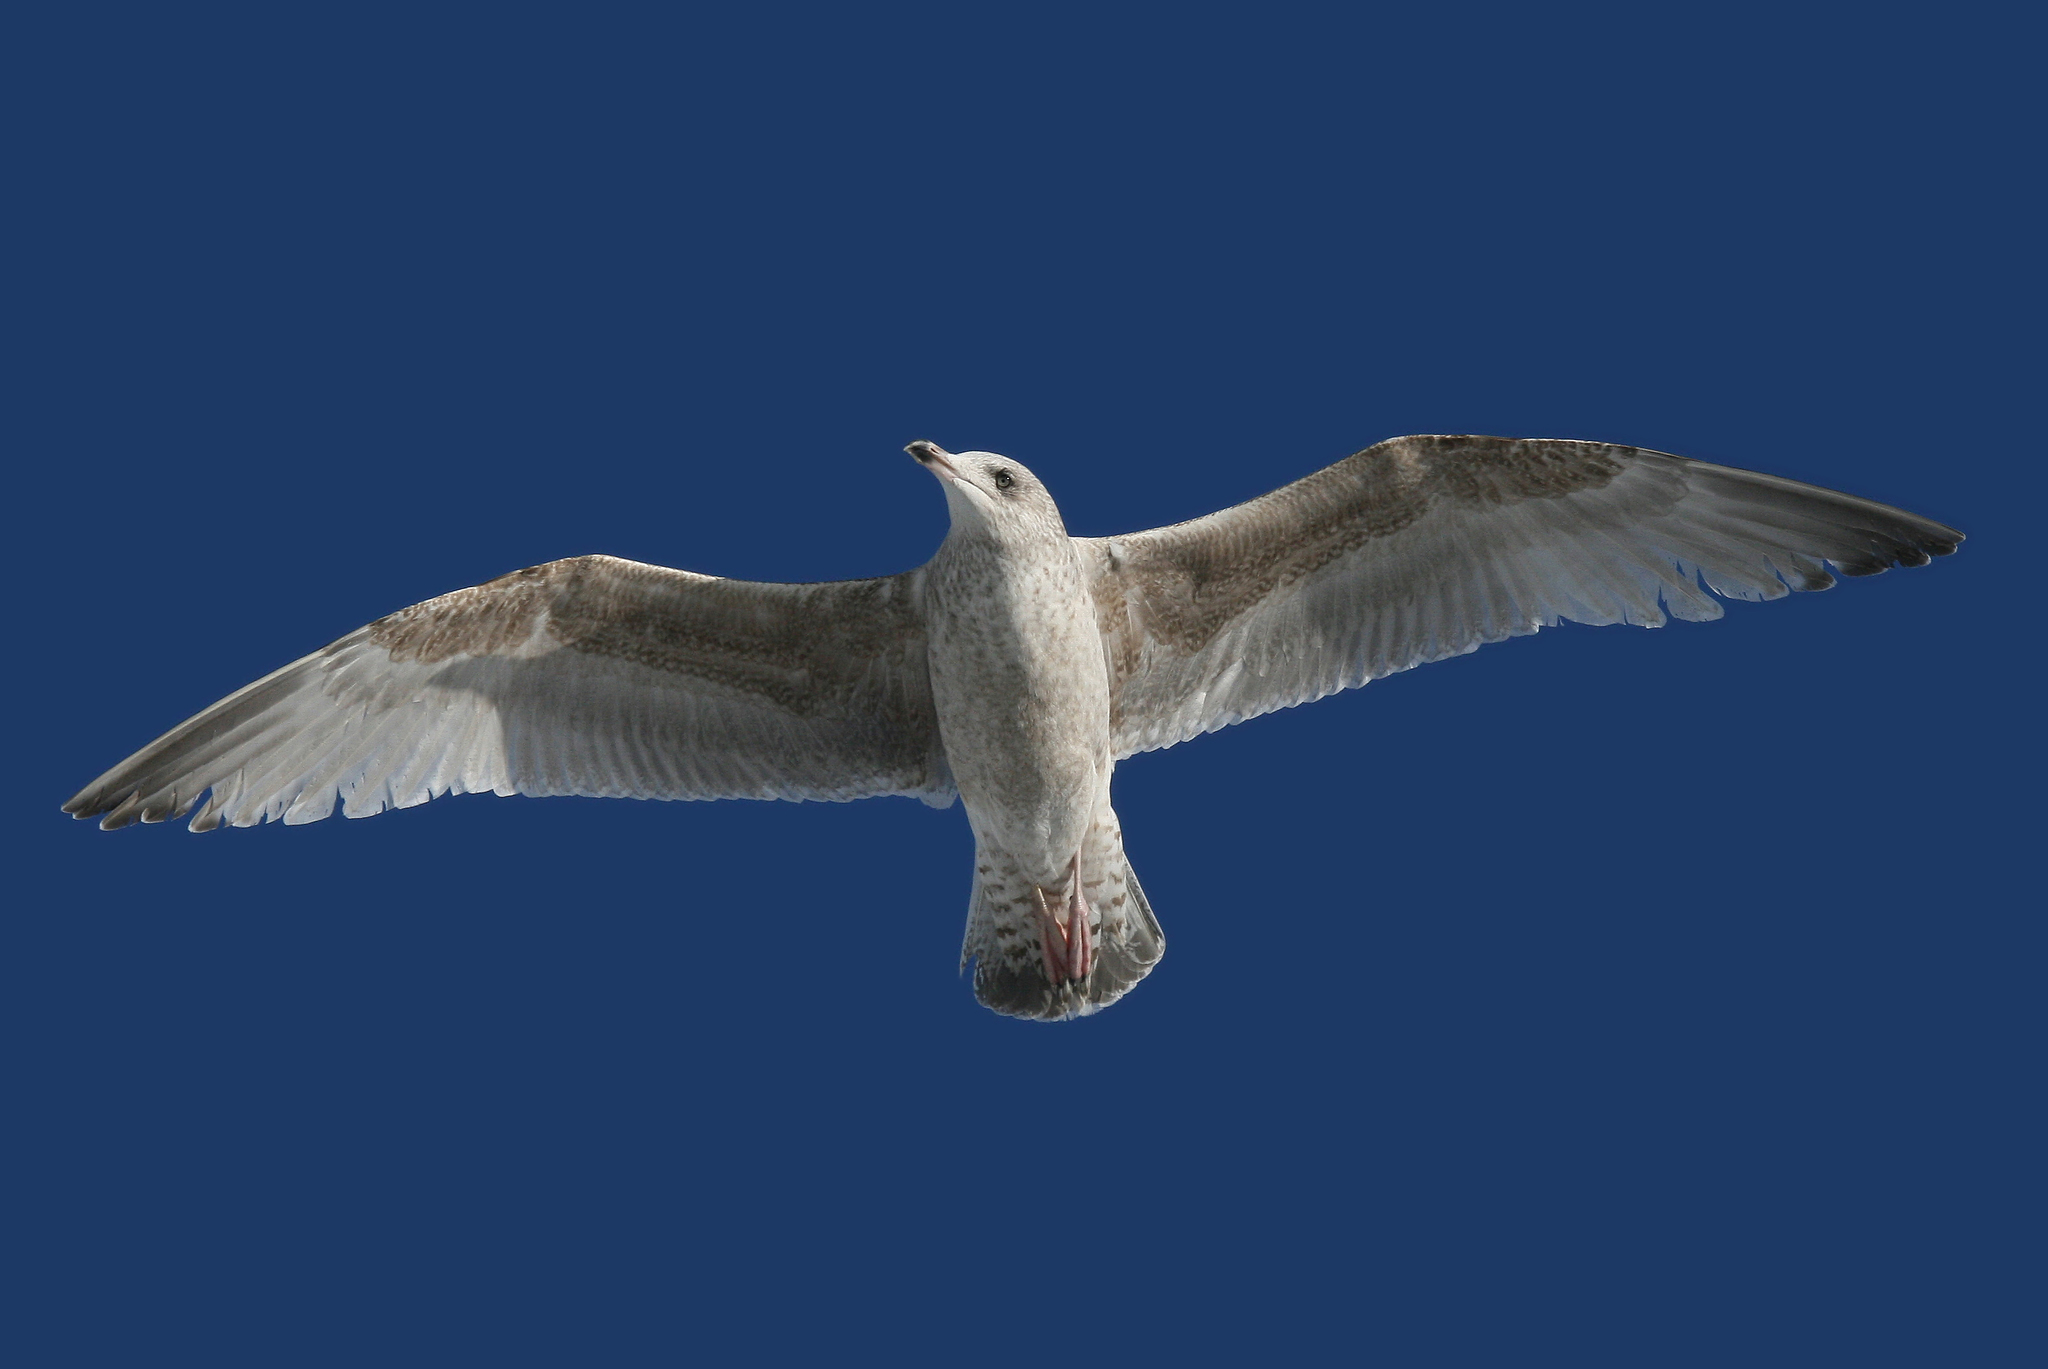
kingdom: Animalia
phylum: Chordata
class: Aves
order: Charadriiformes
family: Laridae
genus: Larus
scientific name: Larus argentatus
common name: Herring gull
